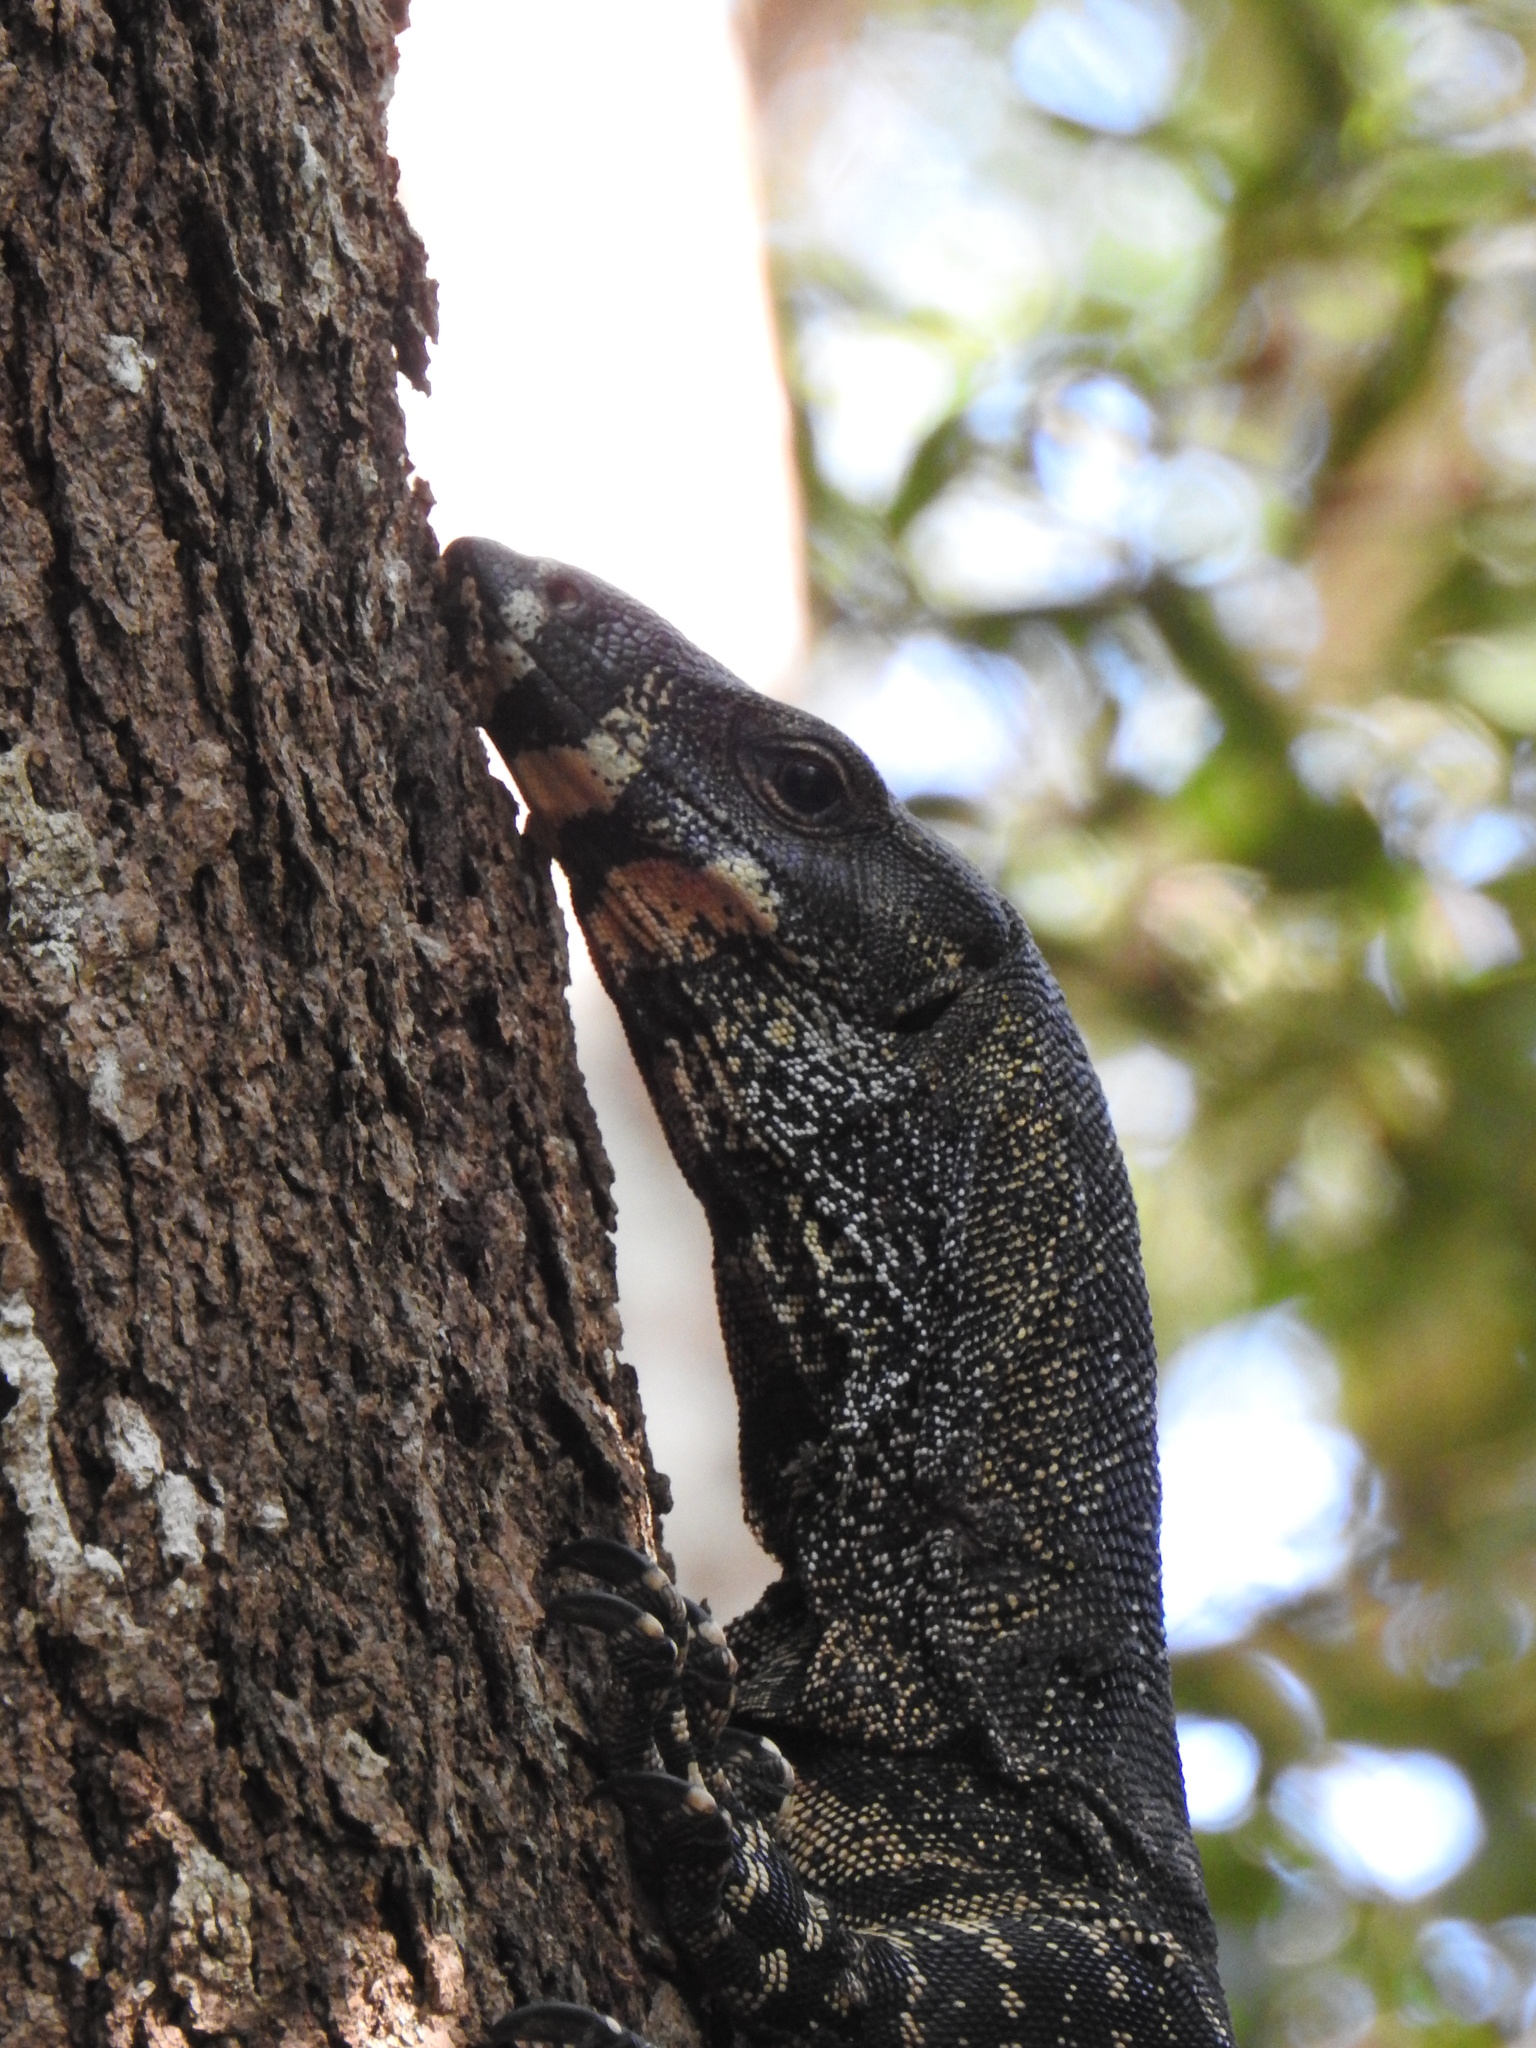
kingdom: Animalia
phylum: Chordata
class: Squamata
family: Varanidae
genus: Varanus
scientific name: Varanus varius
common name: Lace monitor
